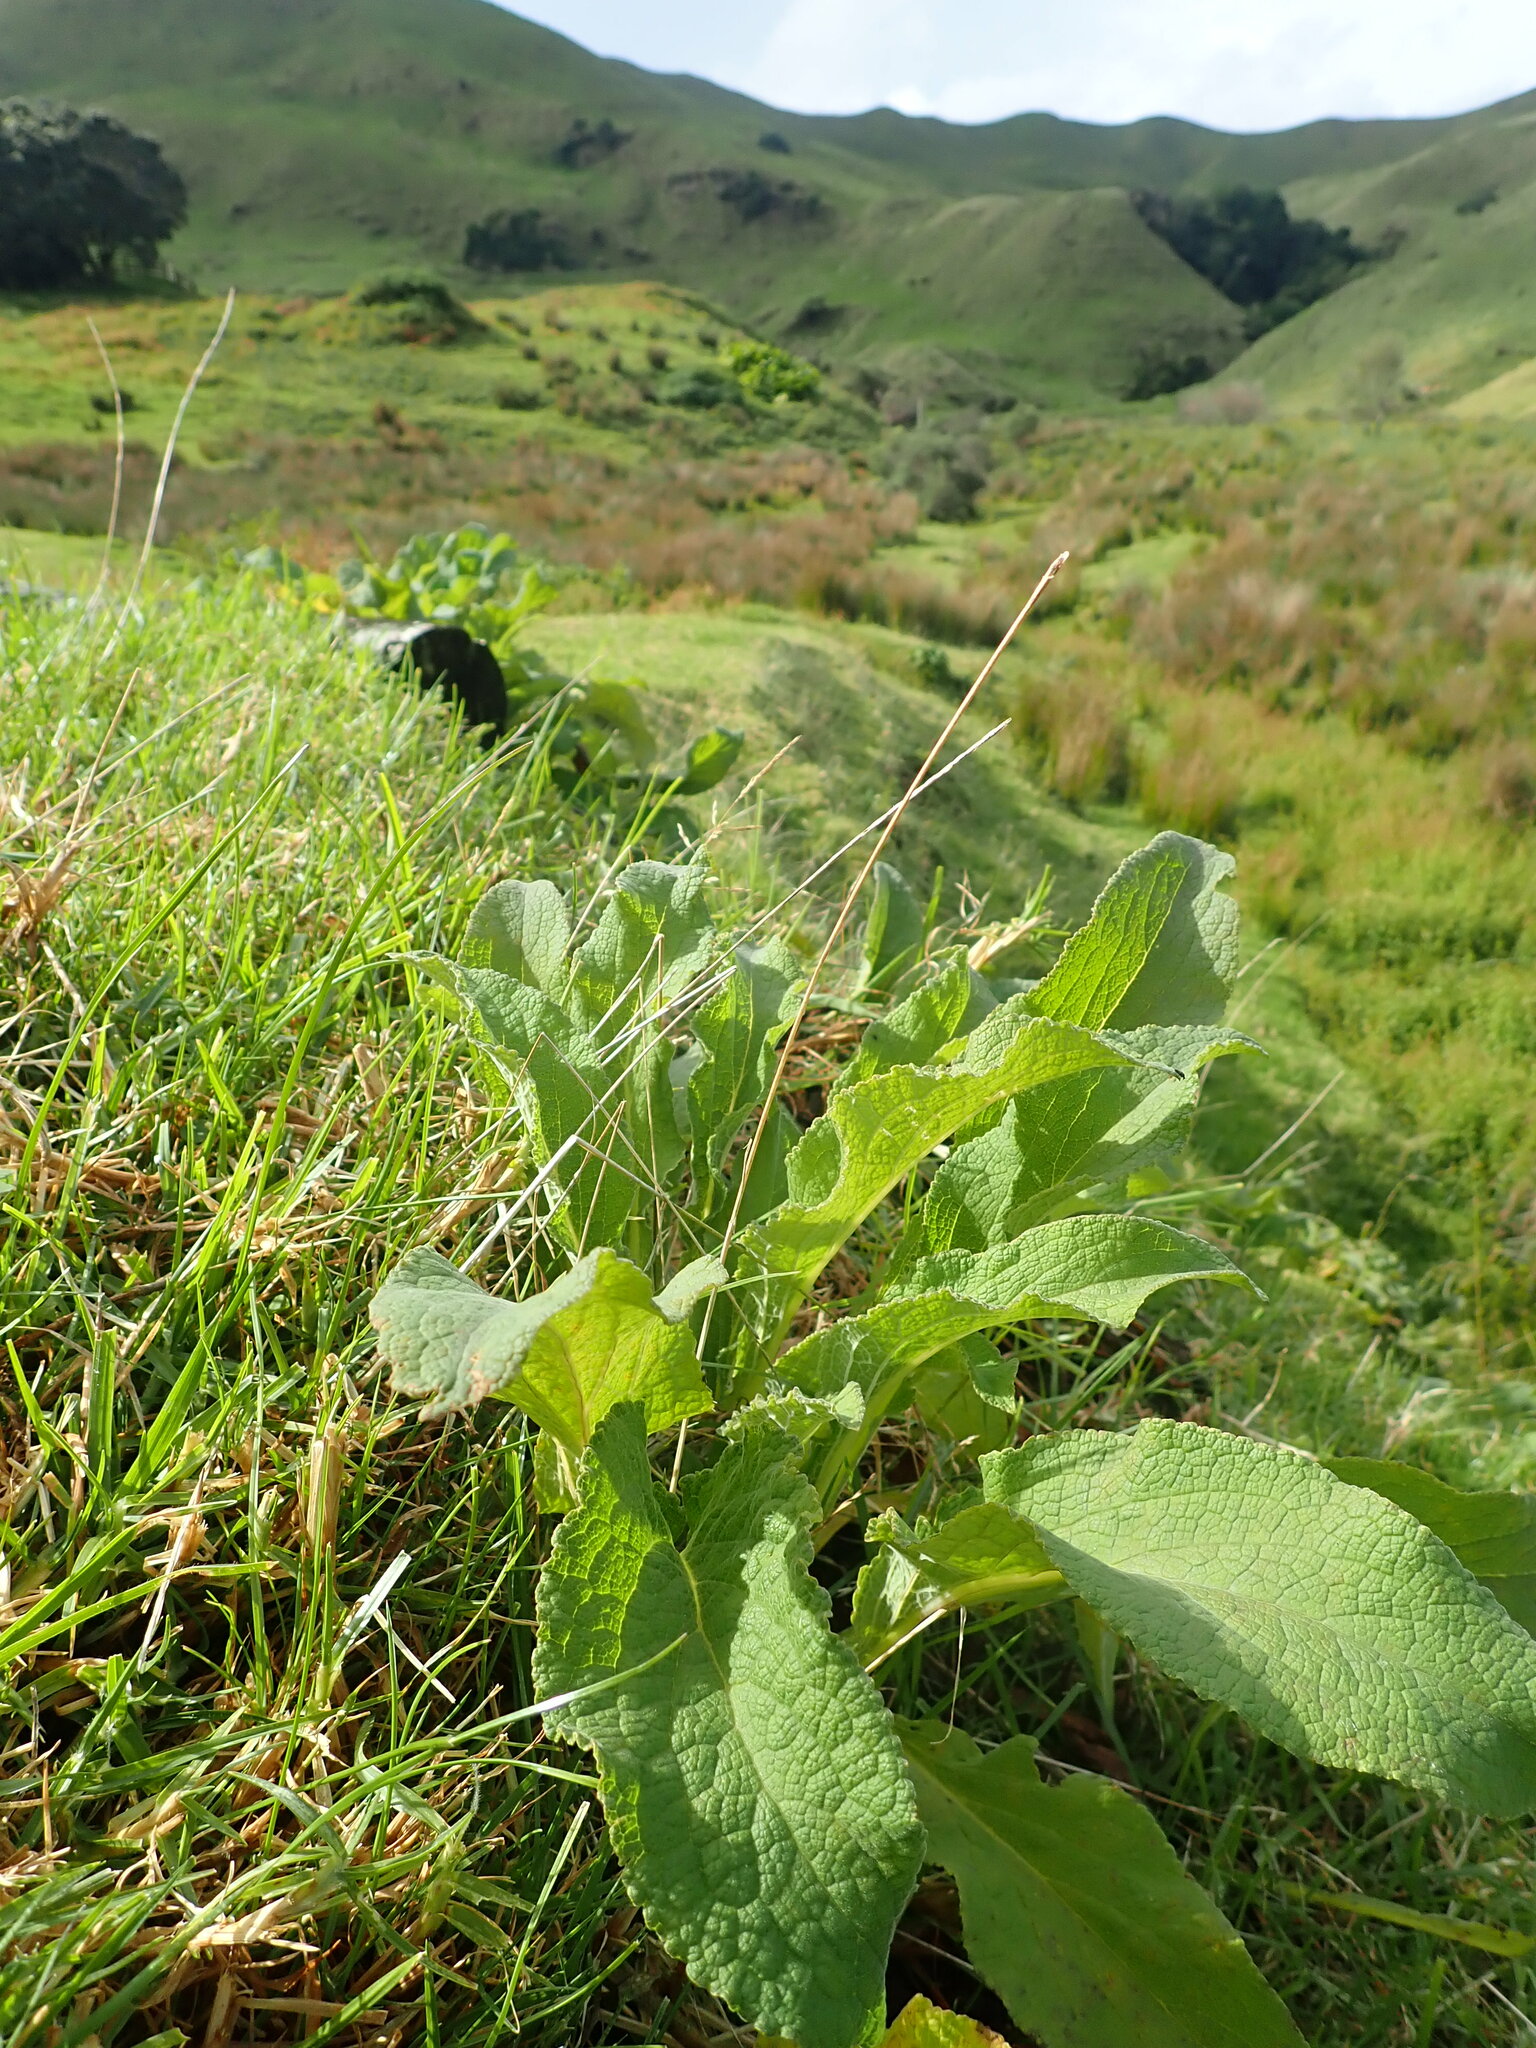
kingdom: Plantae
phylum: Tracheophyta
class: Magnoliopsida
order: Lamiales
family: Plantaginaceae
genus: Digitalis
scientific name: Digitalis purpurea
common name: Foxglove
